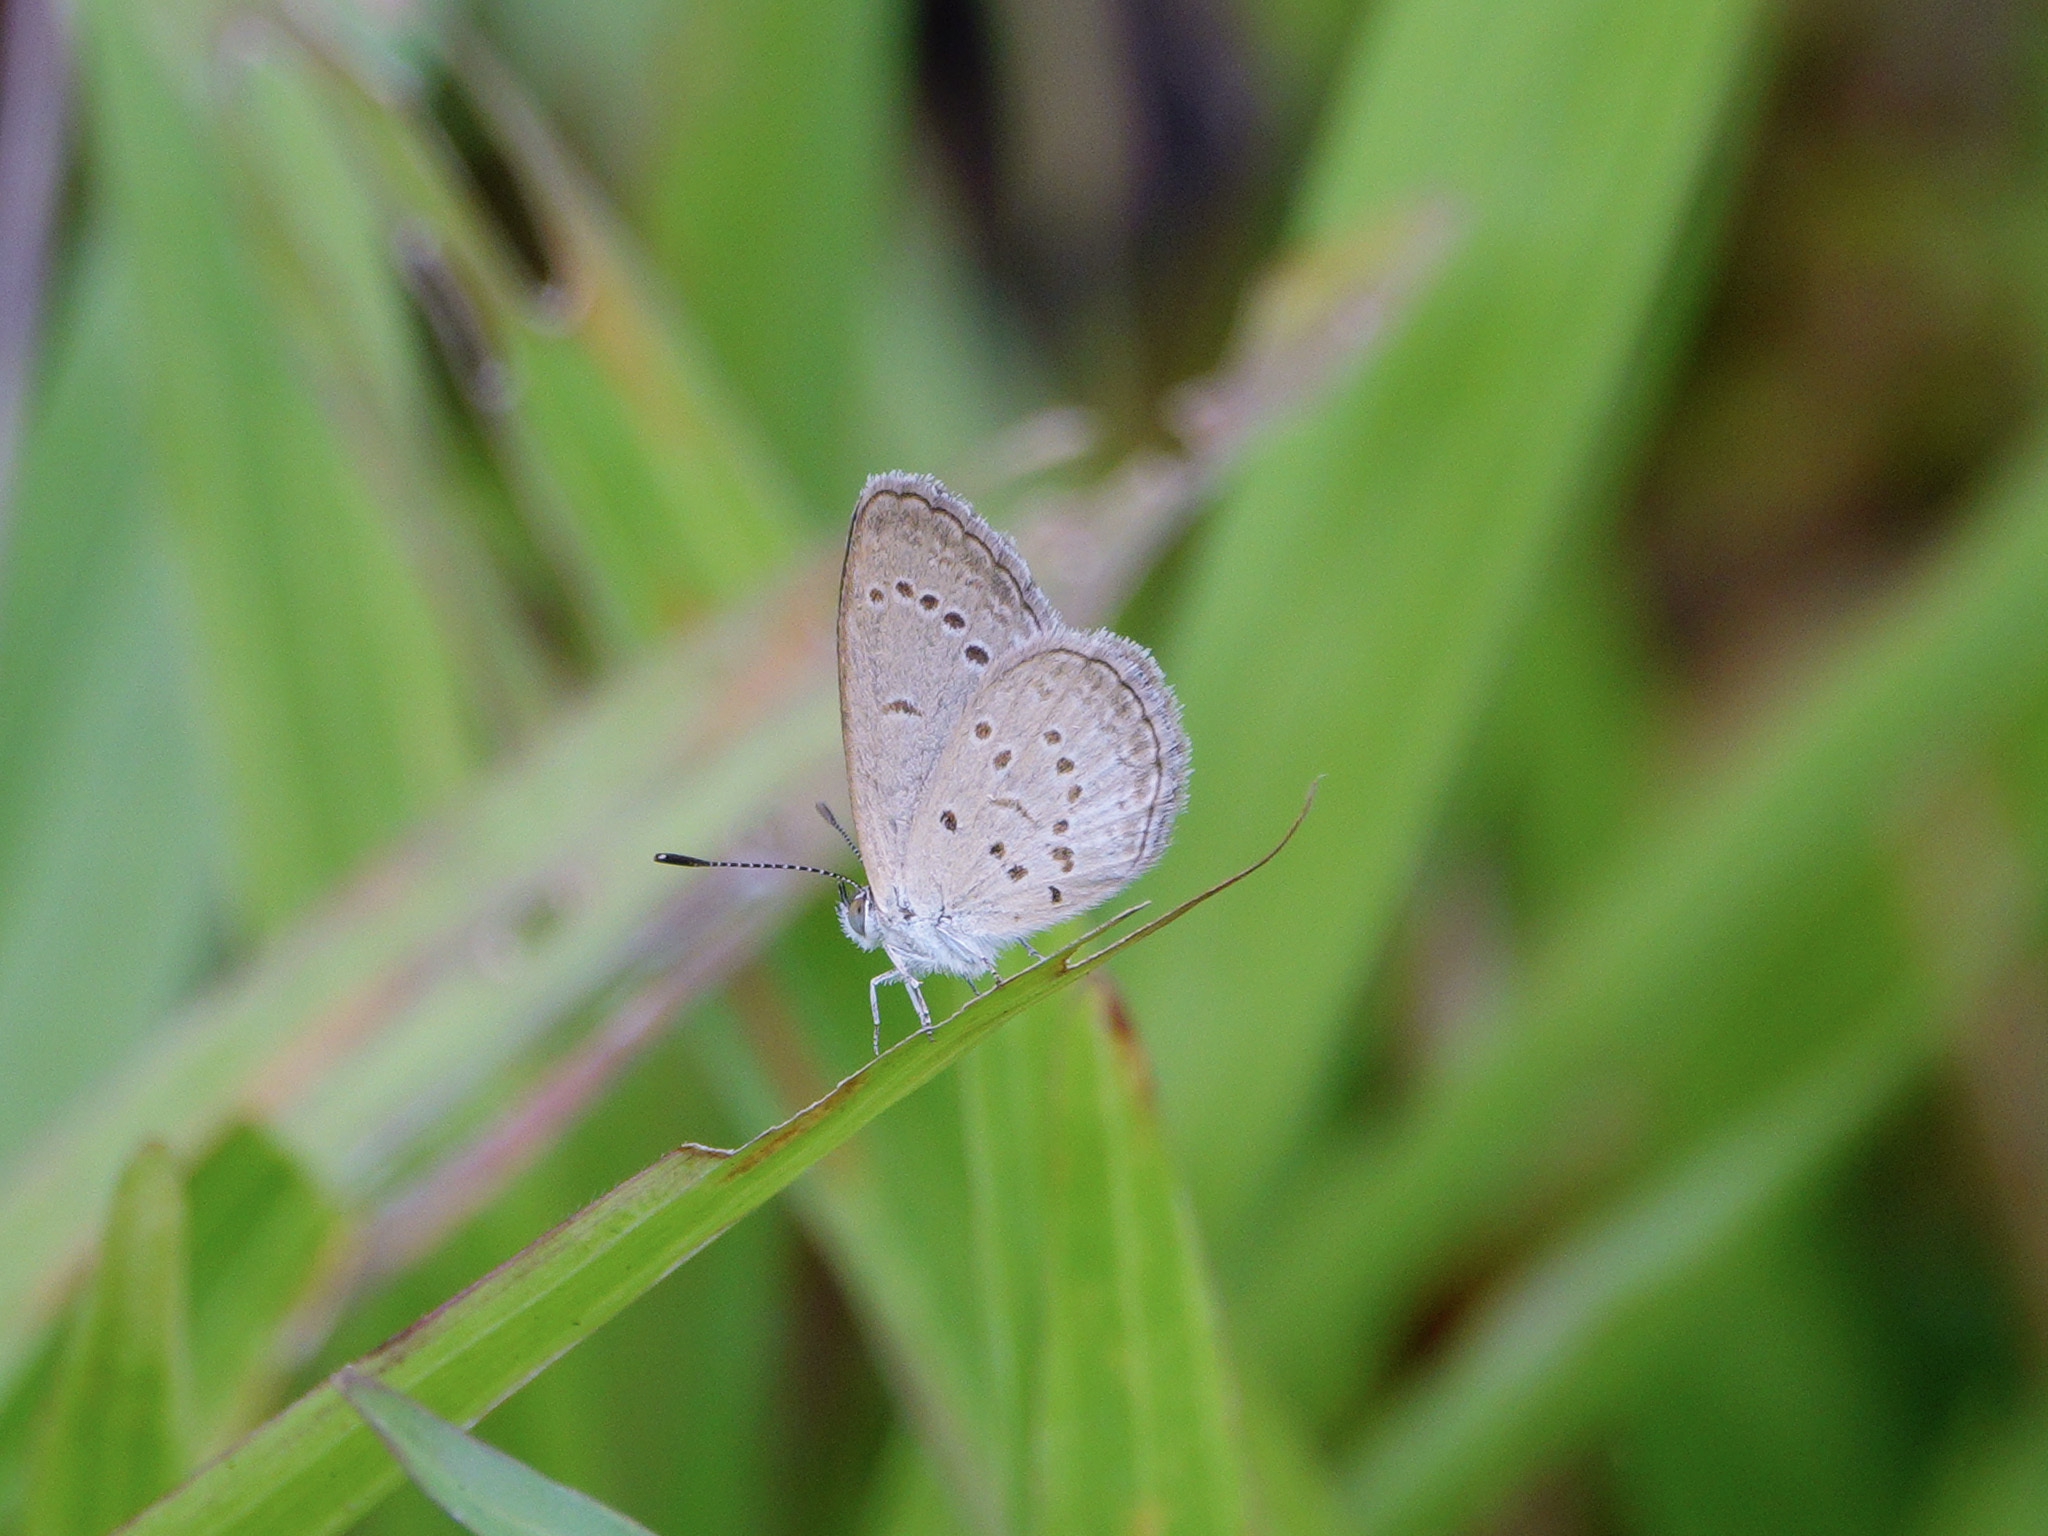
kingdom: Animalia
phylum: Arthropoda
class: Insecta
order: Lepidoptera
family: Lycaenidae
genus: Zizina
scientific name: Zizina otis
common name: Lesser grass blue
